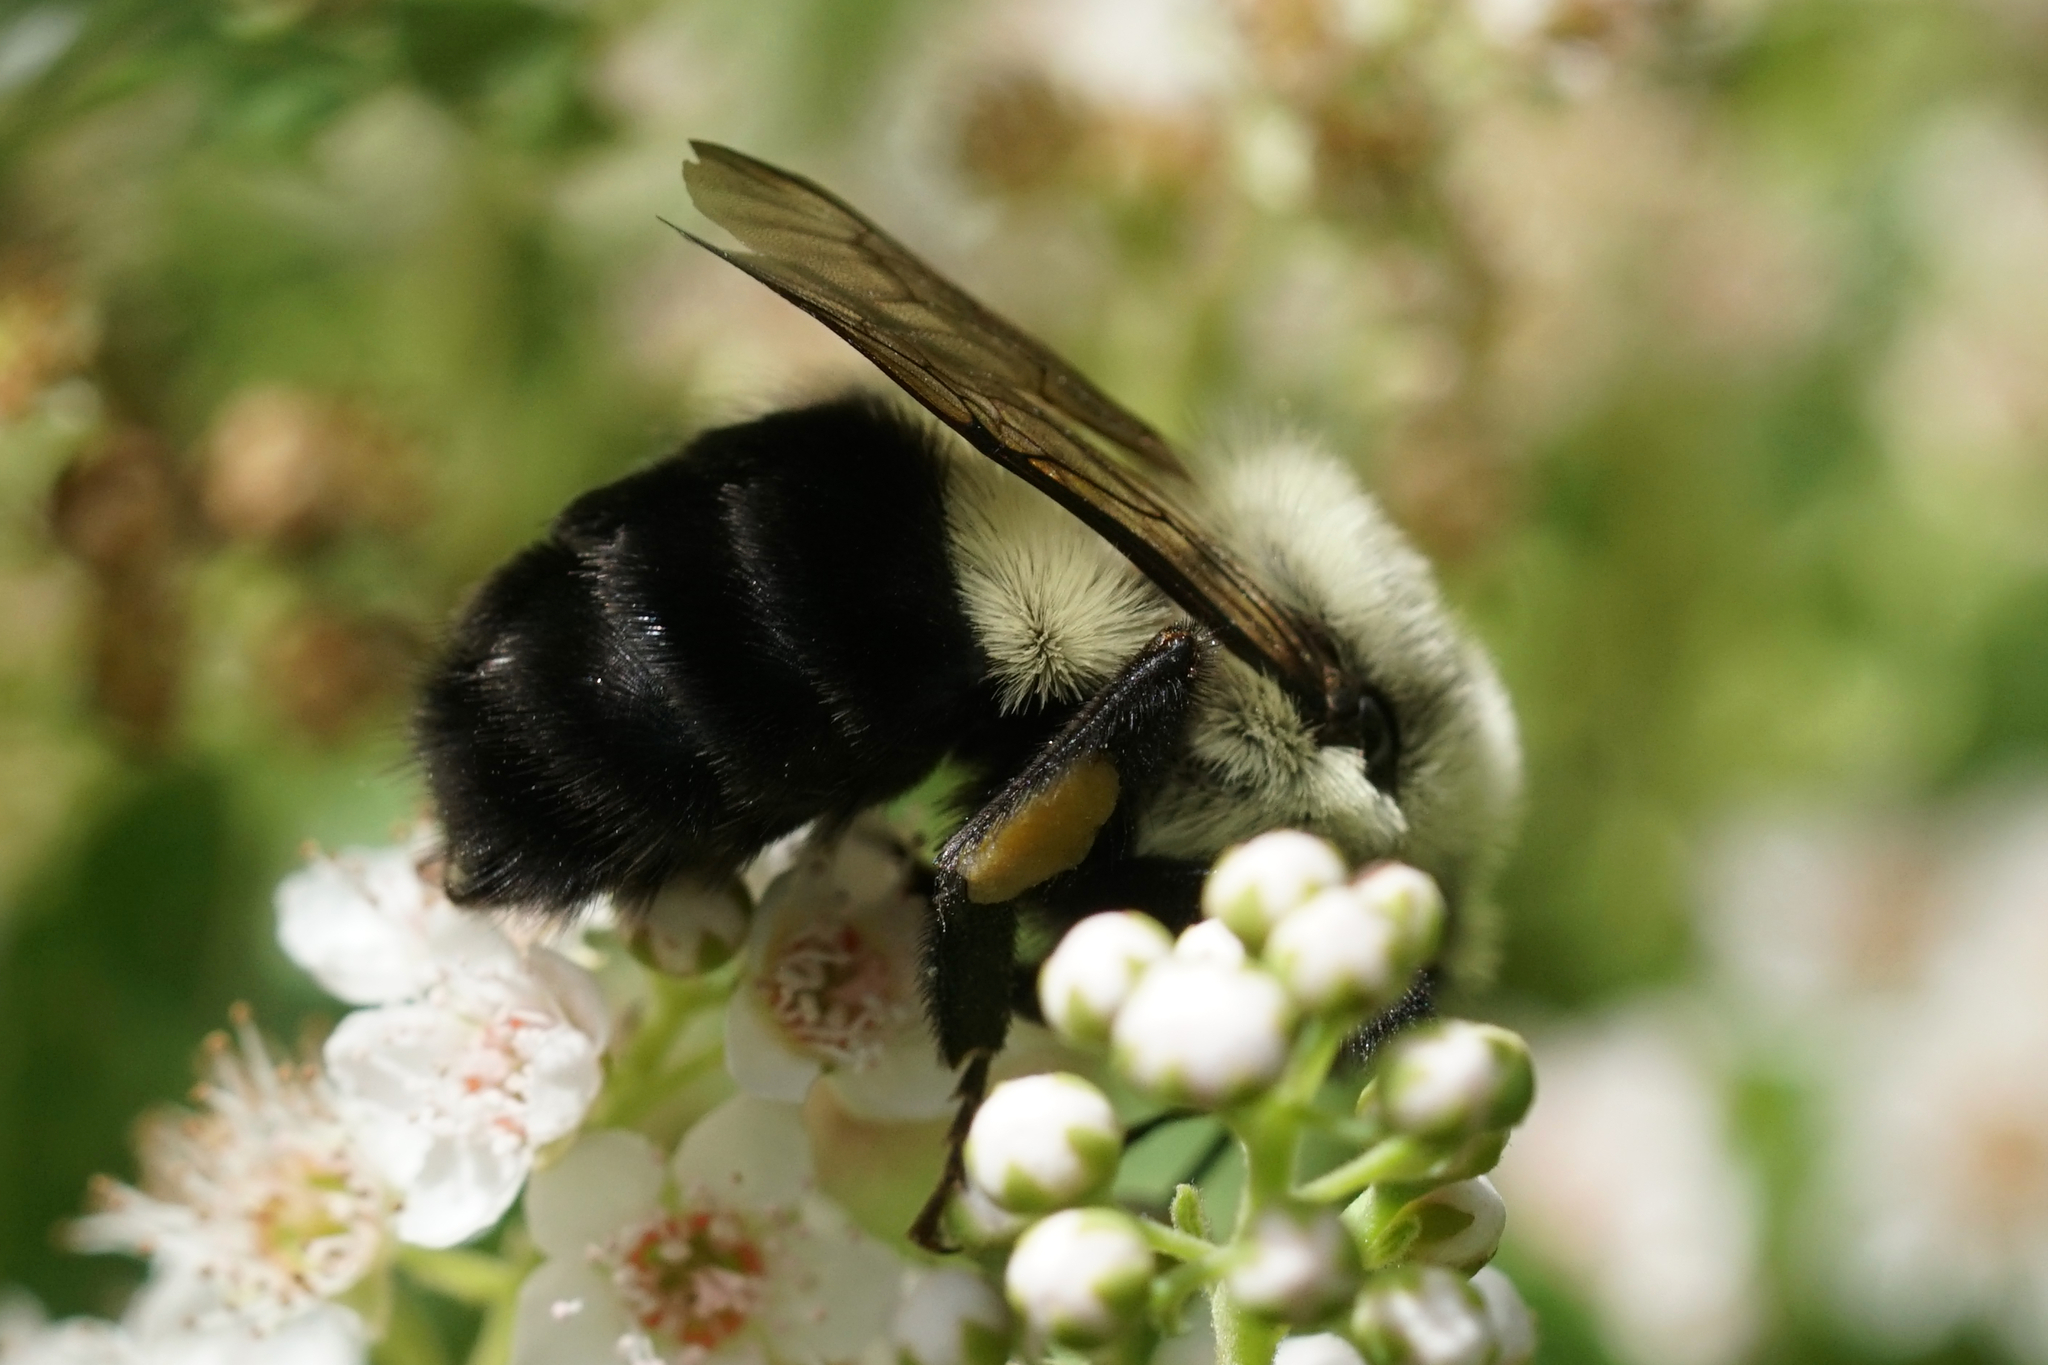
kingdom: Animalia
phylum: Arthropoda
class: Insecta
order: Hymenoptera
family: Apidae
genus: Bombus
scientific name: Bombus impatiens
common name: Common eastern bumble bee
